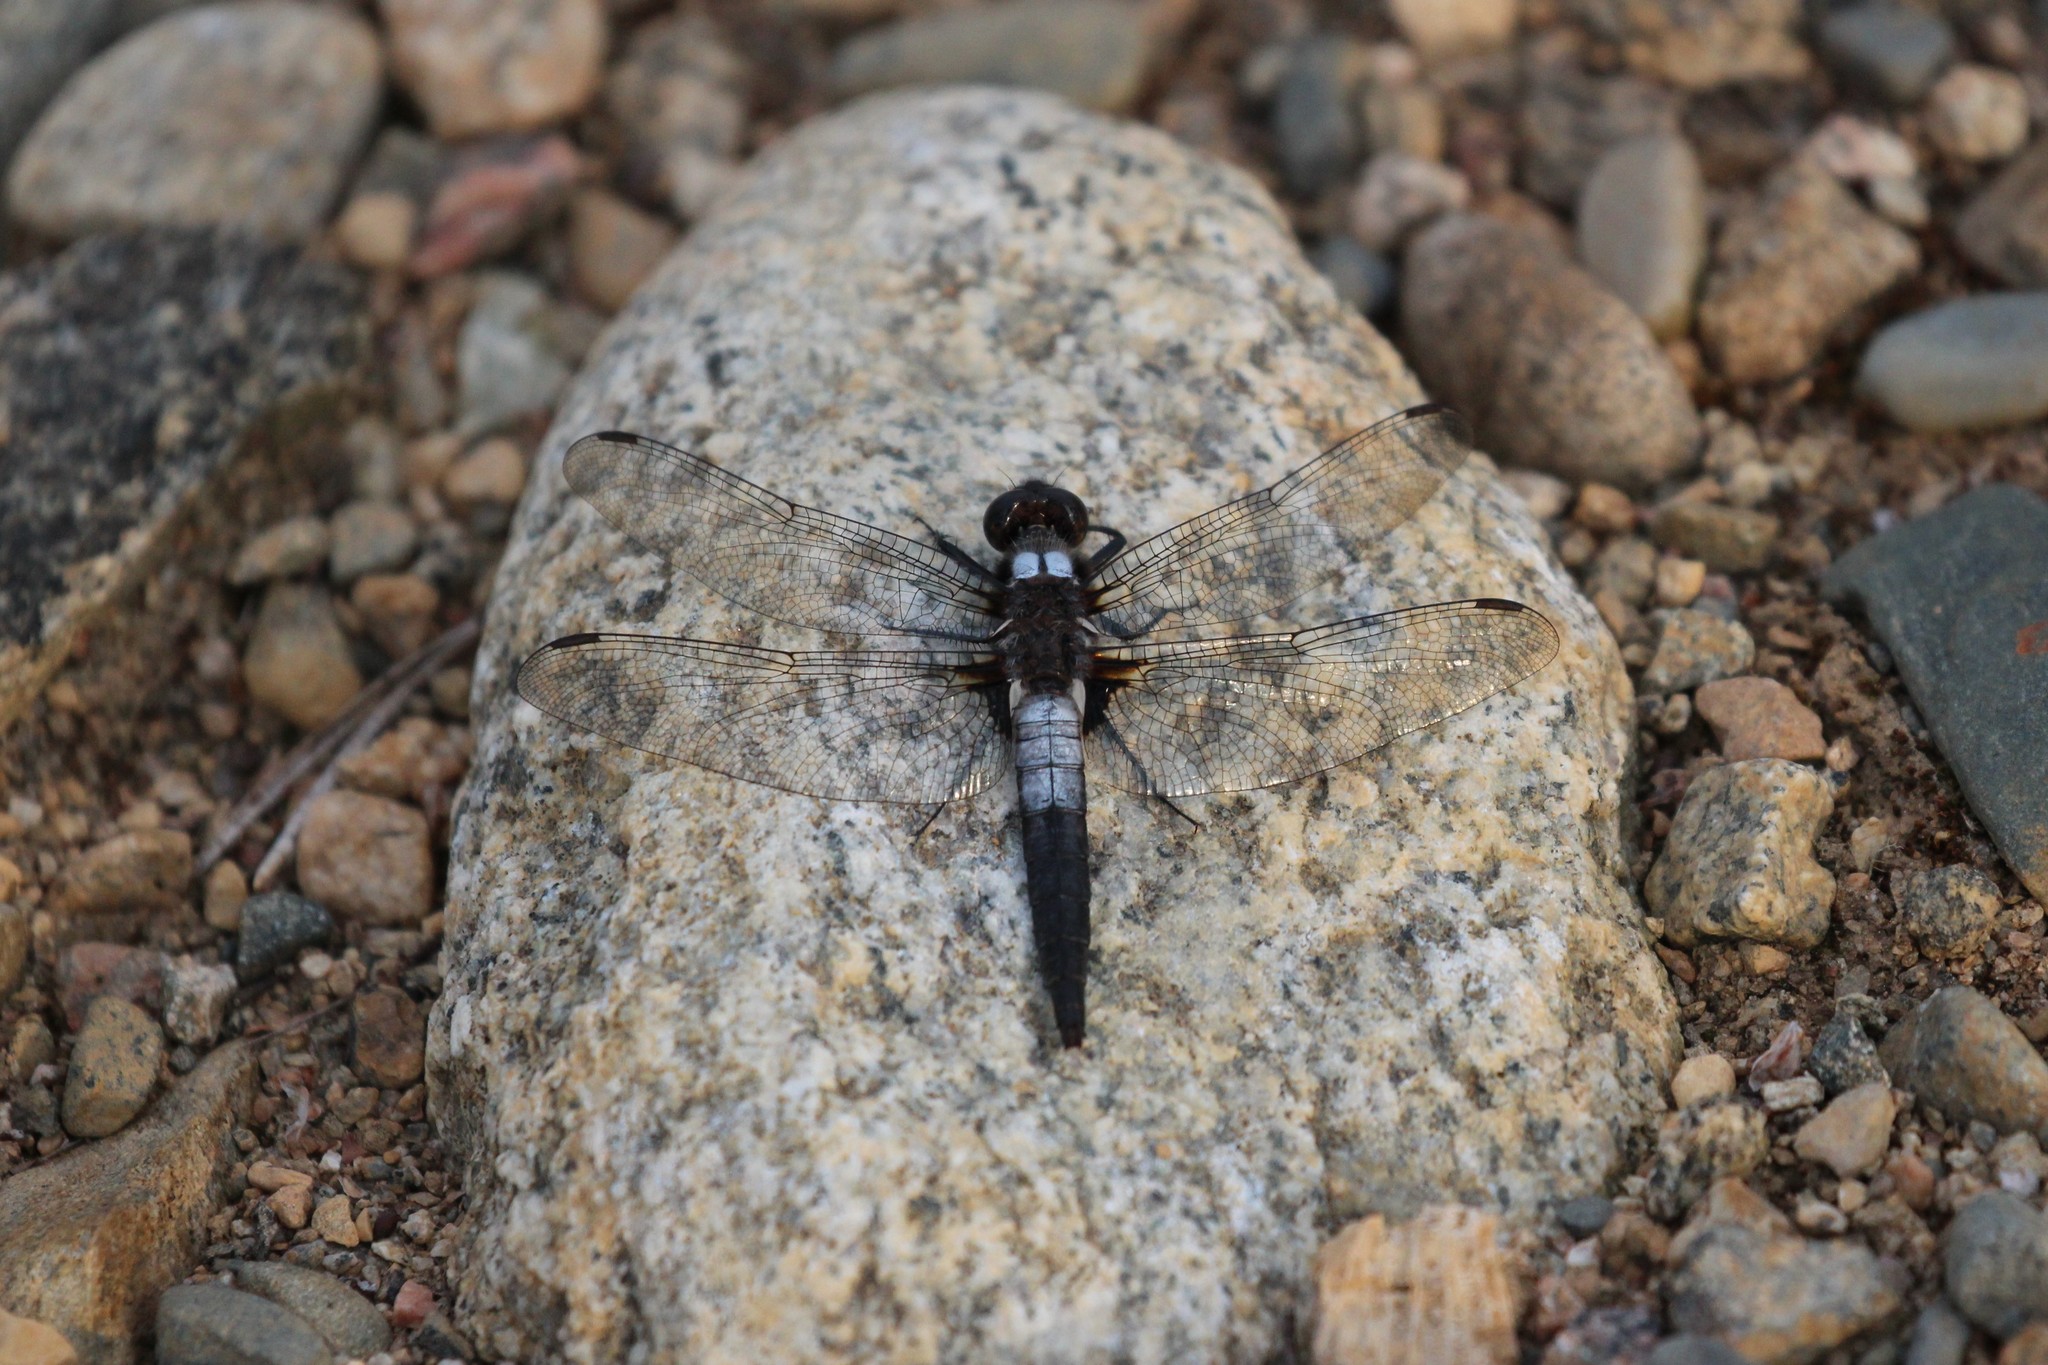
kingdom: Animalia
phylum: Arthropoda
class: Insecta
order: Odonata
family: Libellulidae
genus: Ladona
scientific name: Ladona julia
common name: Chalk-fronted corporal
